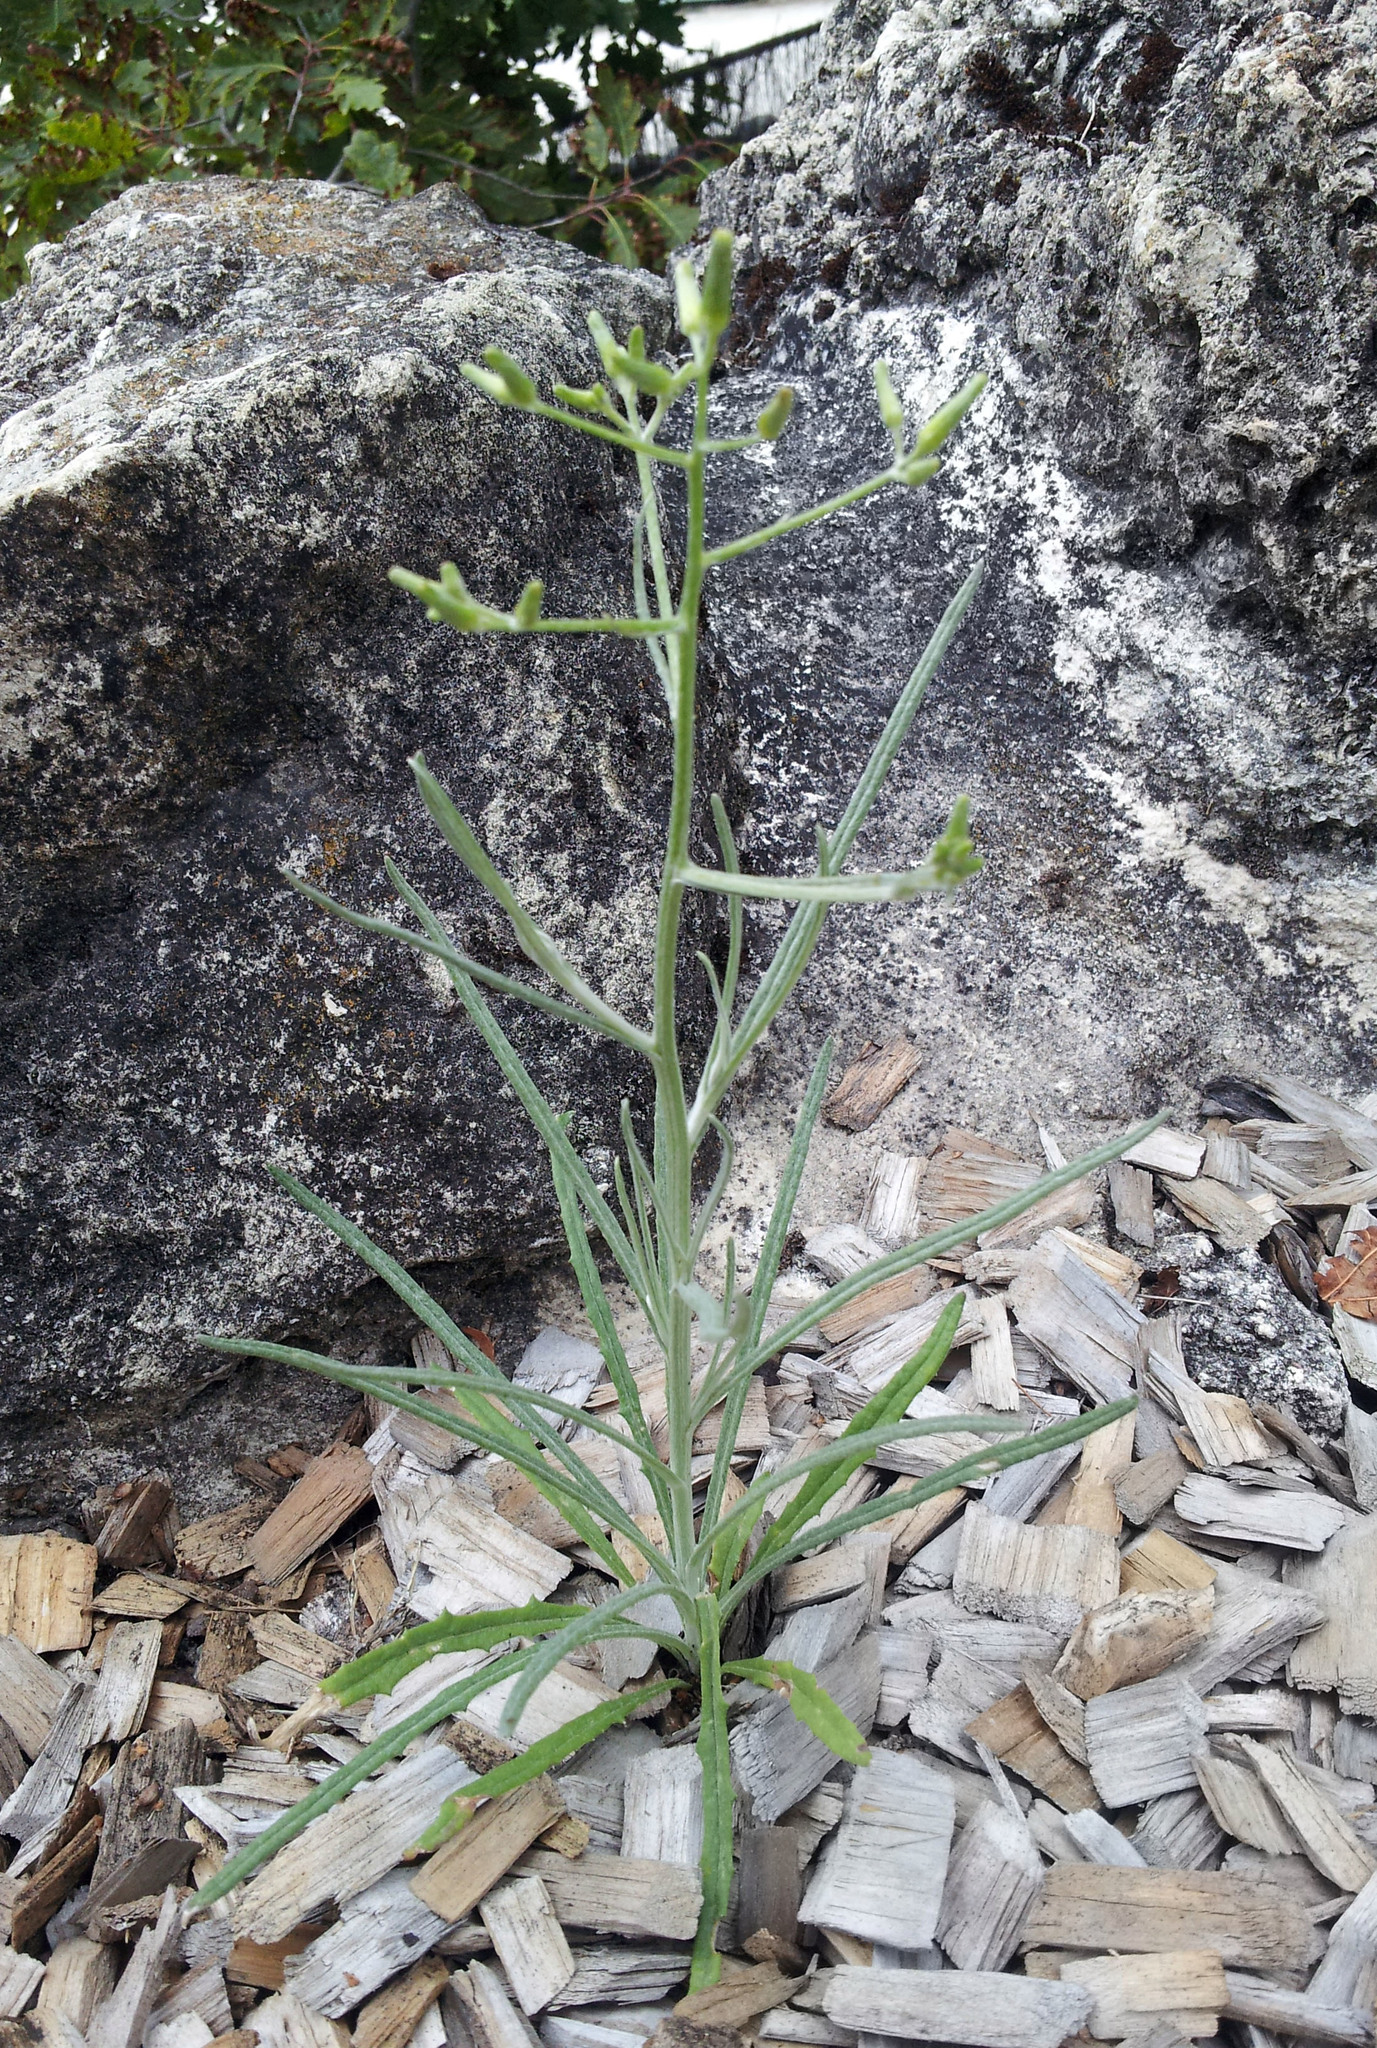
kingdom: Plantae
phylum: Tracheophyta
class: Magnoliopsida
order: Asterales
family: Asteraceae
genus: Senecio
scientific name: Senecio quadridentatus
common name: Cotton fireweed
